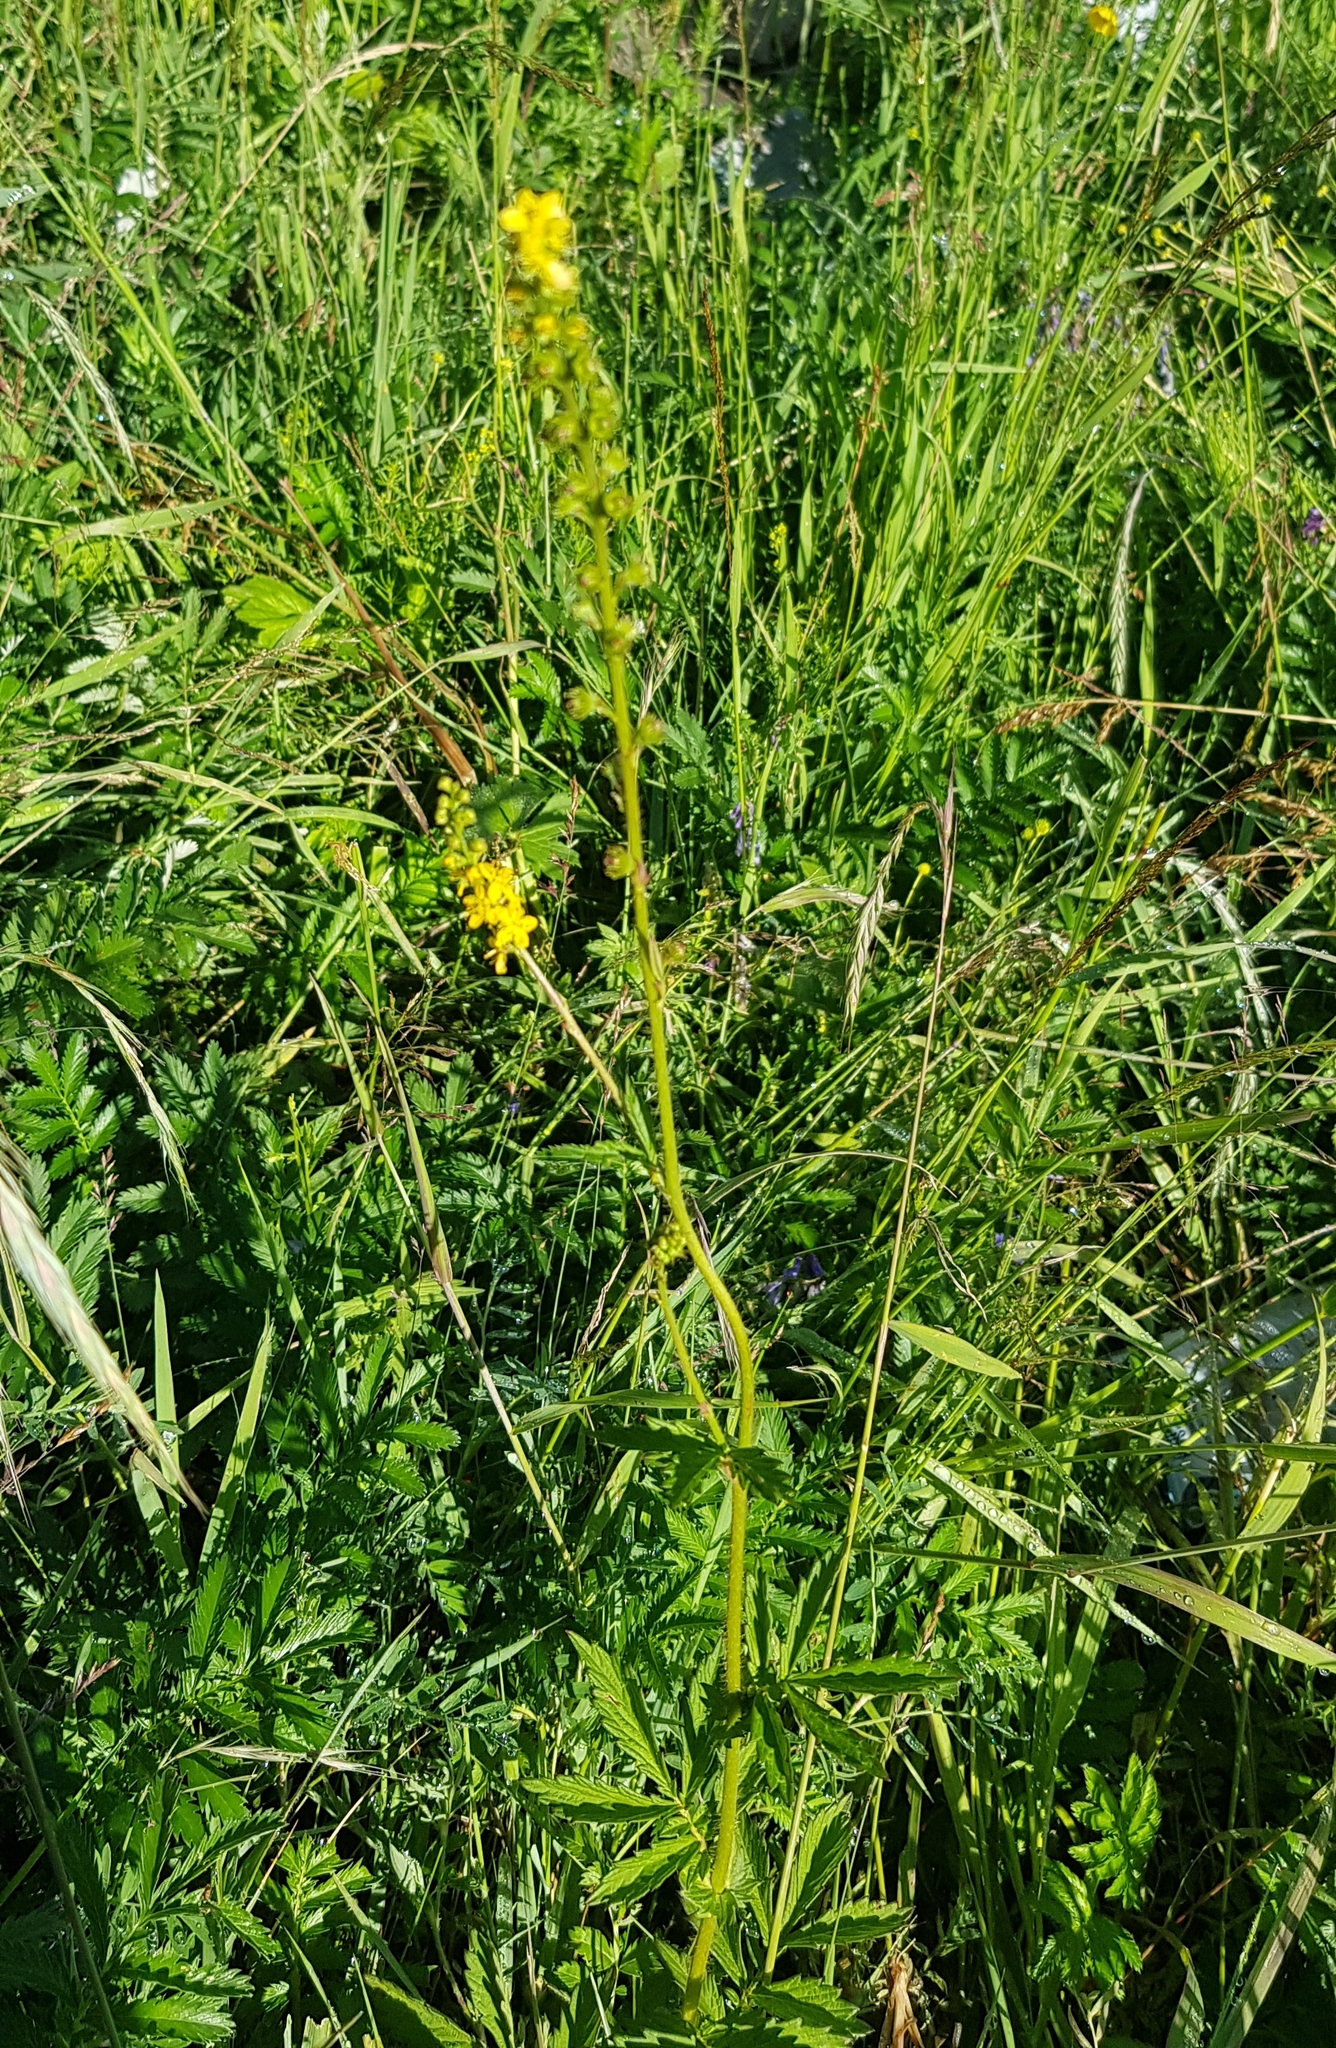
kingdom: Plantae
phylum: Tracheophyta
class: Magnoliopsida
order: Rosales
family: Rosaceae
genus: Agrimonia
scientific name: Agrimonia pilosa
